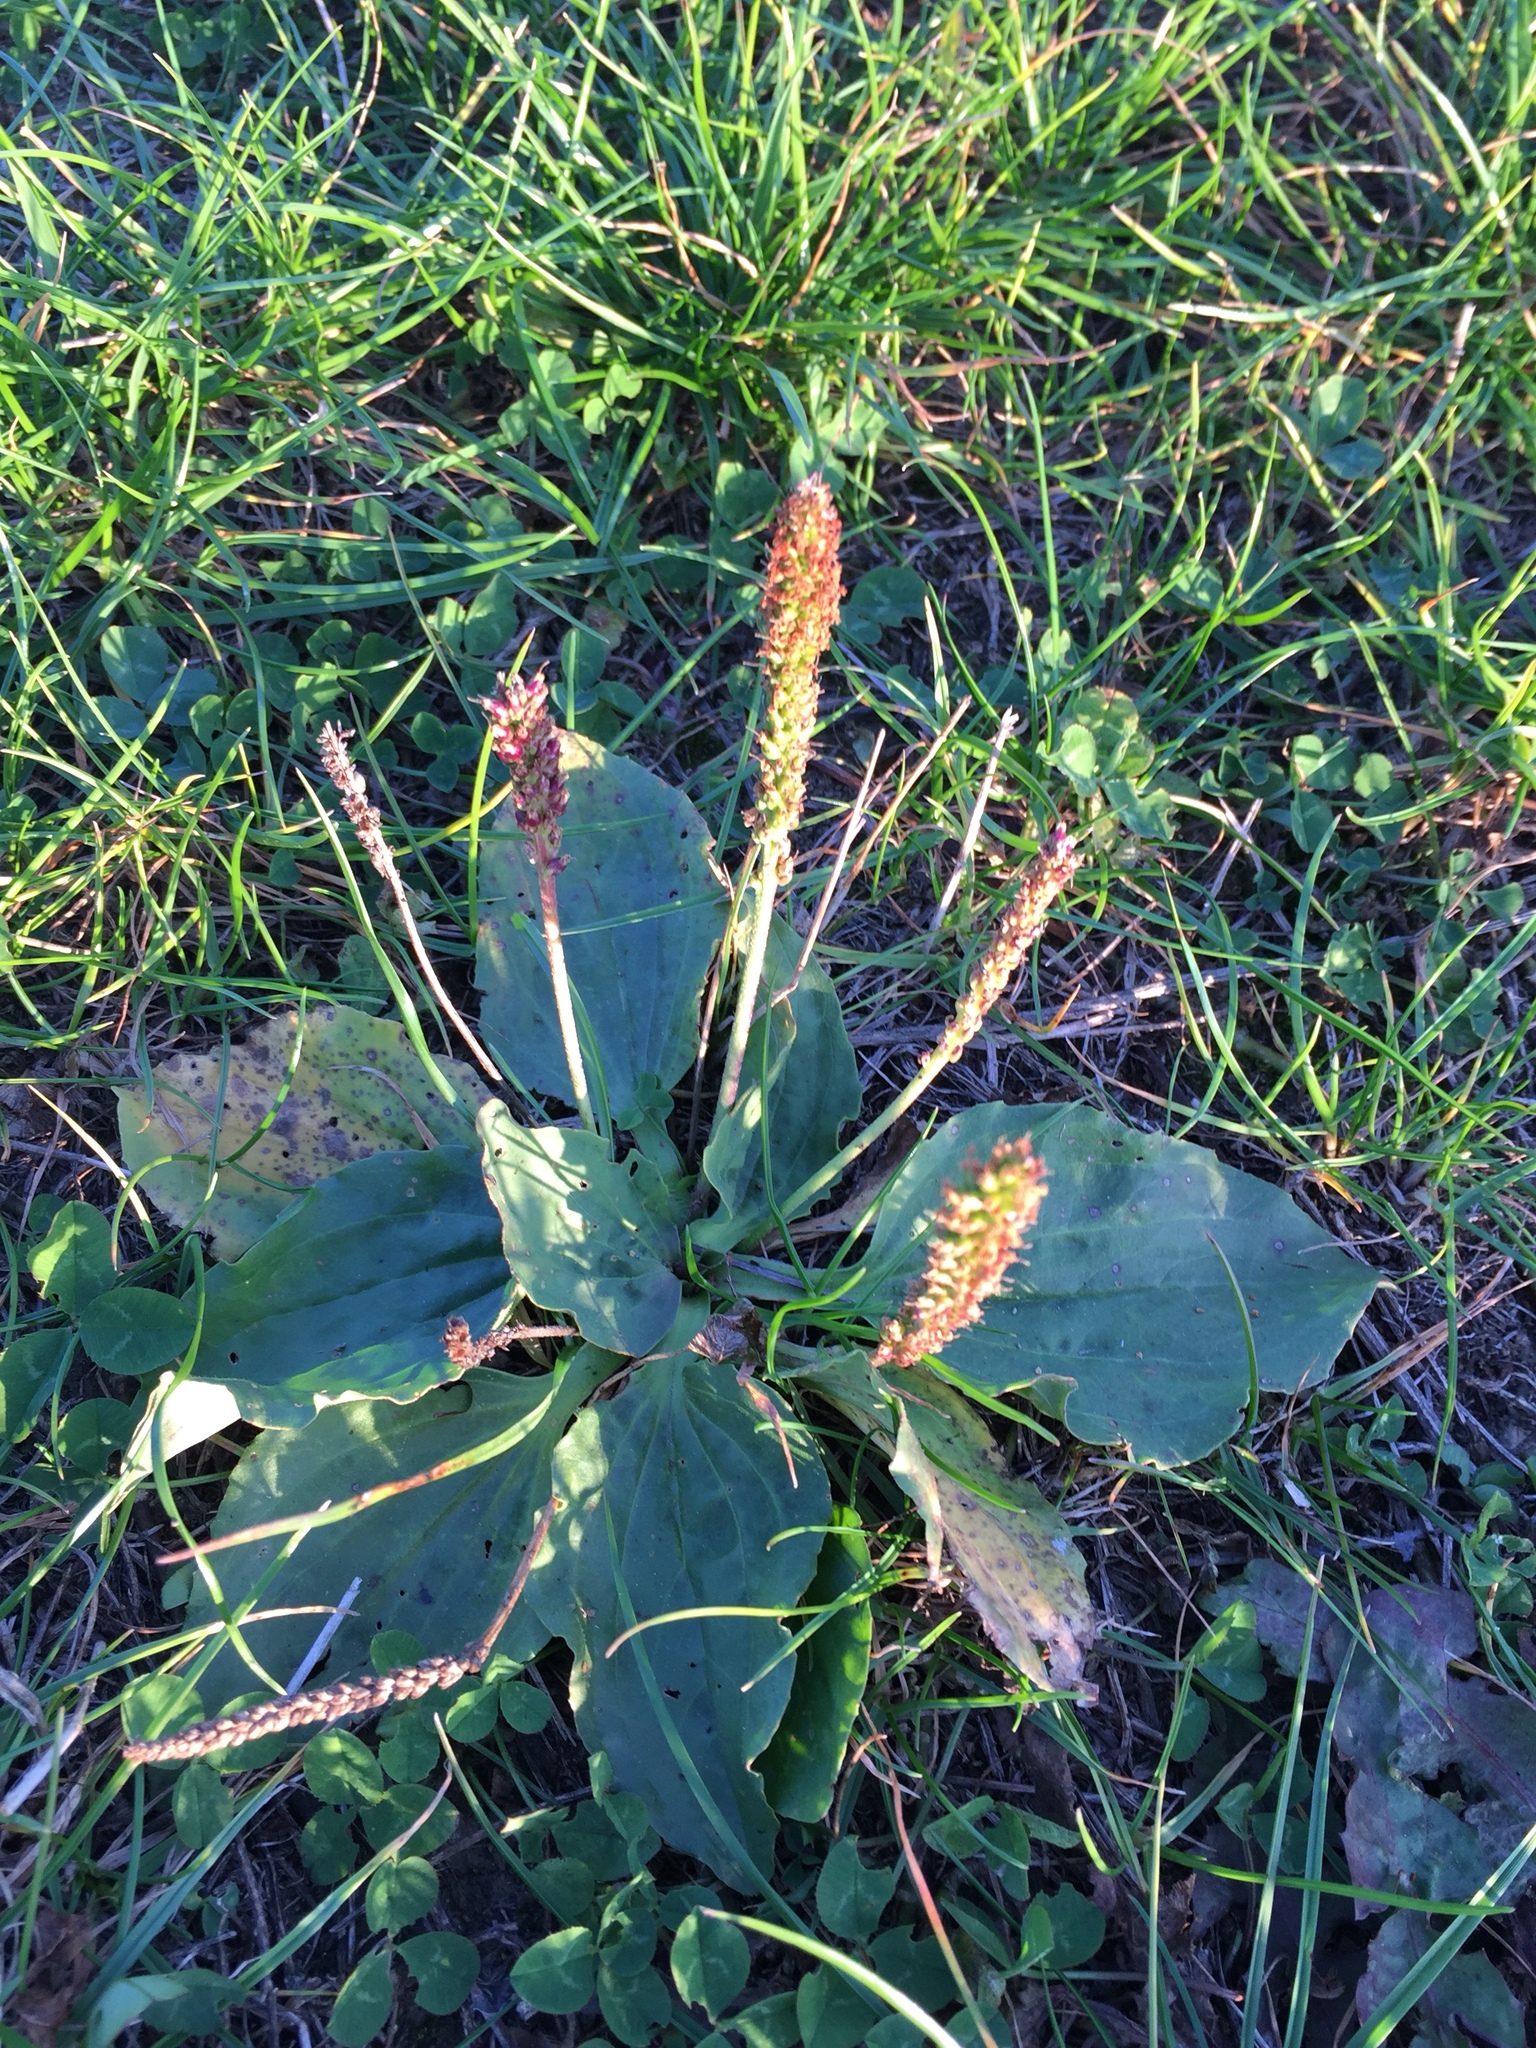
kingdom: Plantae
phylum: Tracheophyta
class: Magnoliopsida
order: Lamiales
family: Plantaginaceae
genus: Plantago
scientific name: Plantago major
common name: Common plantain
